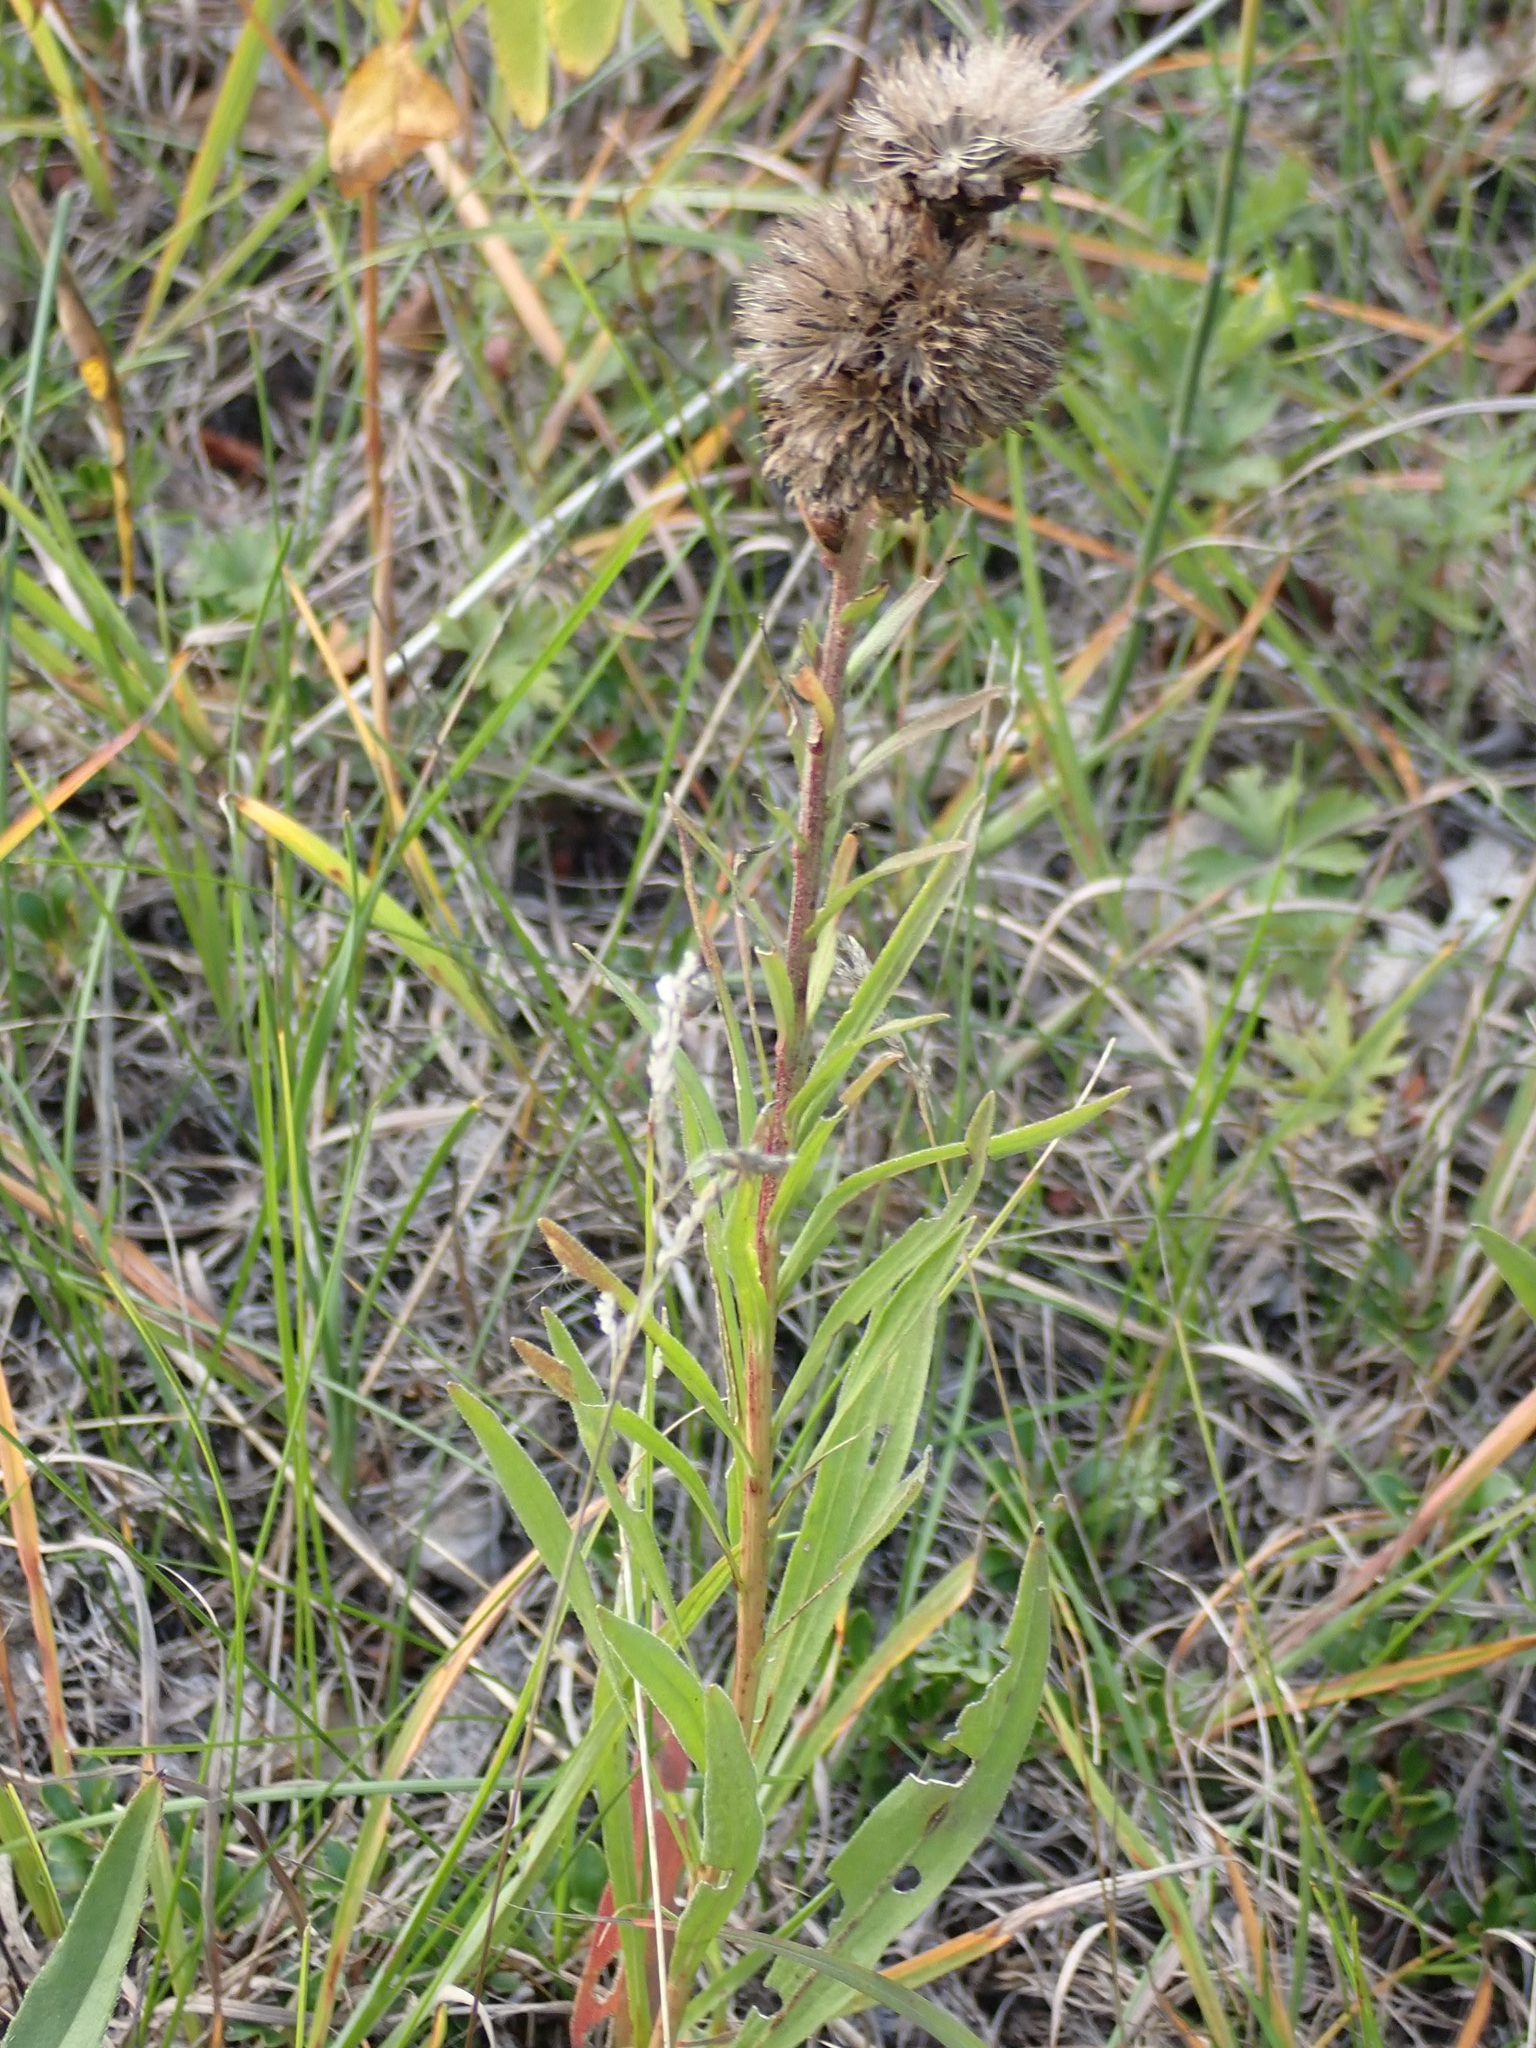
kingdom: Plantae
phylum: Tracheophyta
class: Magnoliopsida
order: Asterales
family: Asteraceae
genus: Liatris
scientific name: Liatris ligulistylis
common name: Northern plains gayfeather
